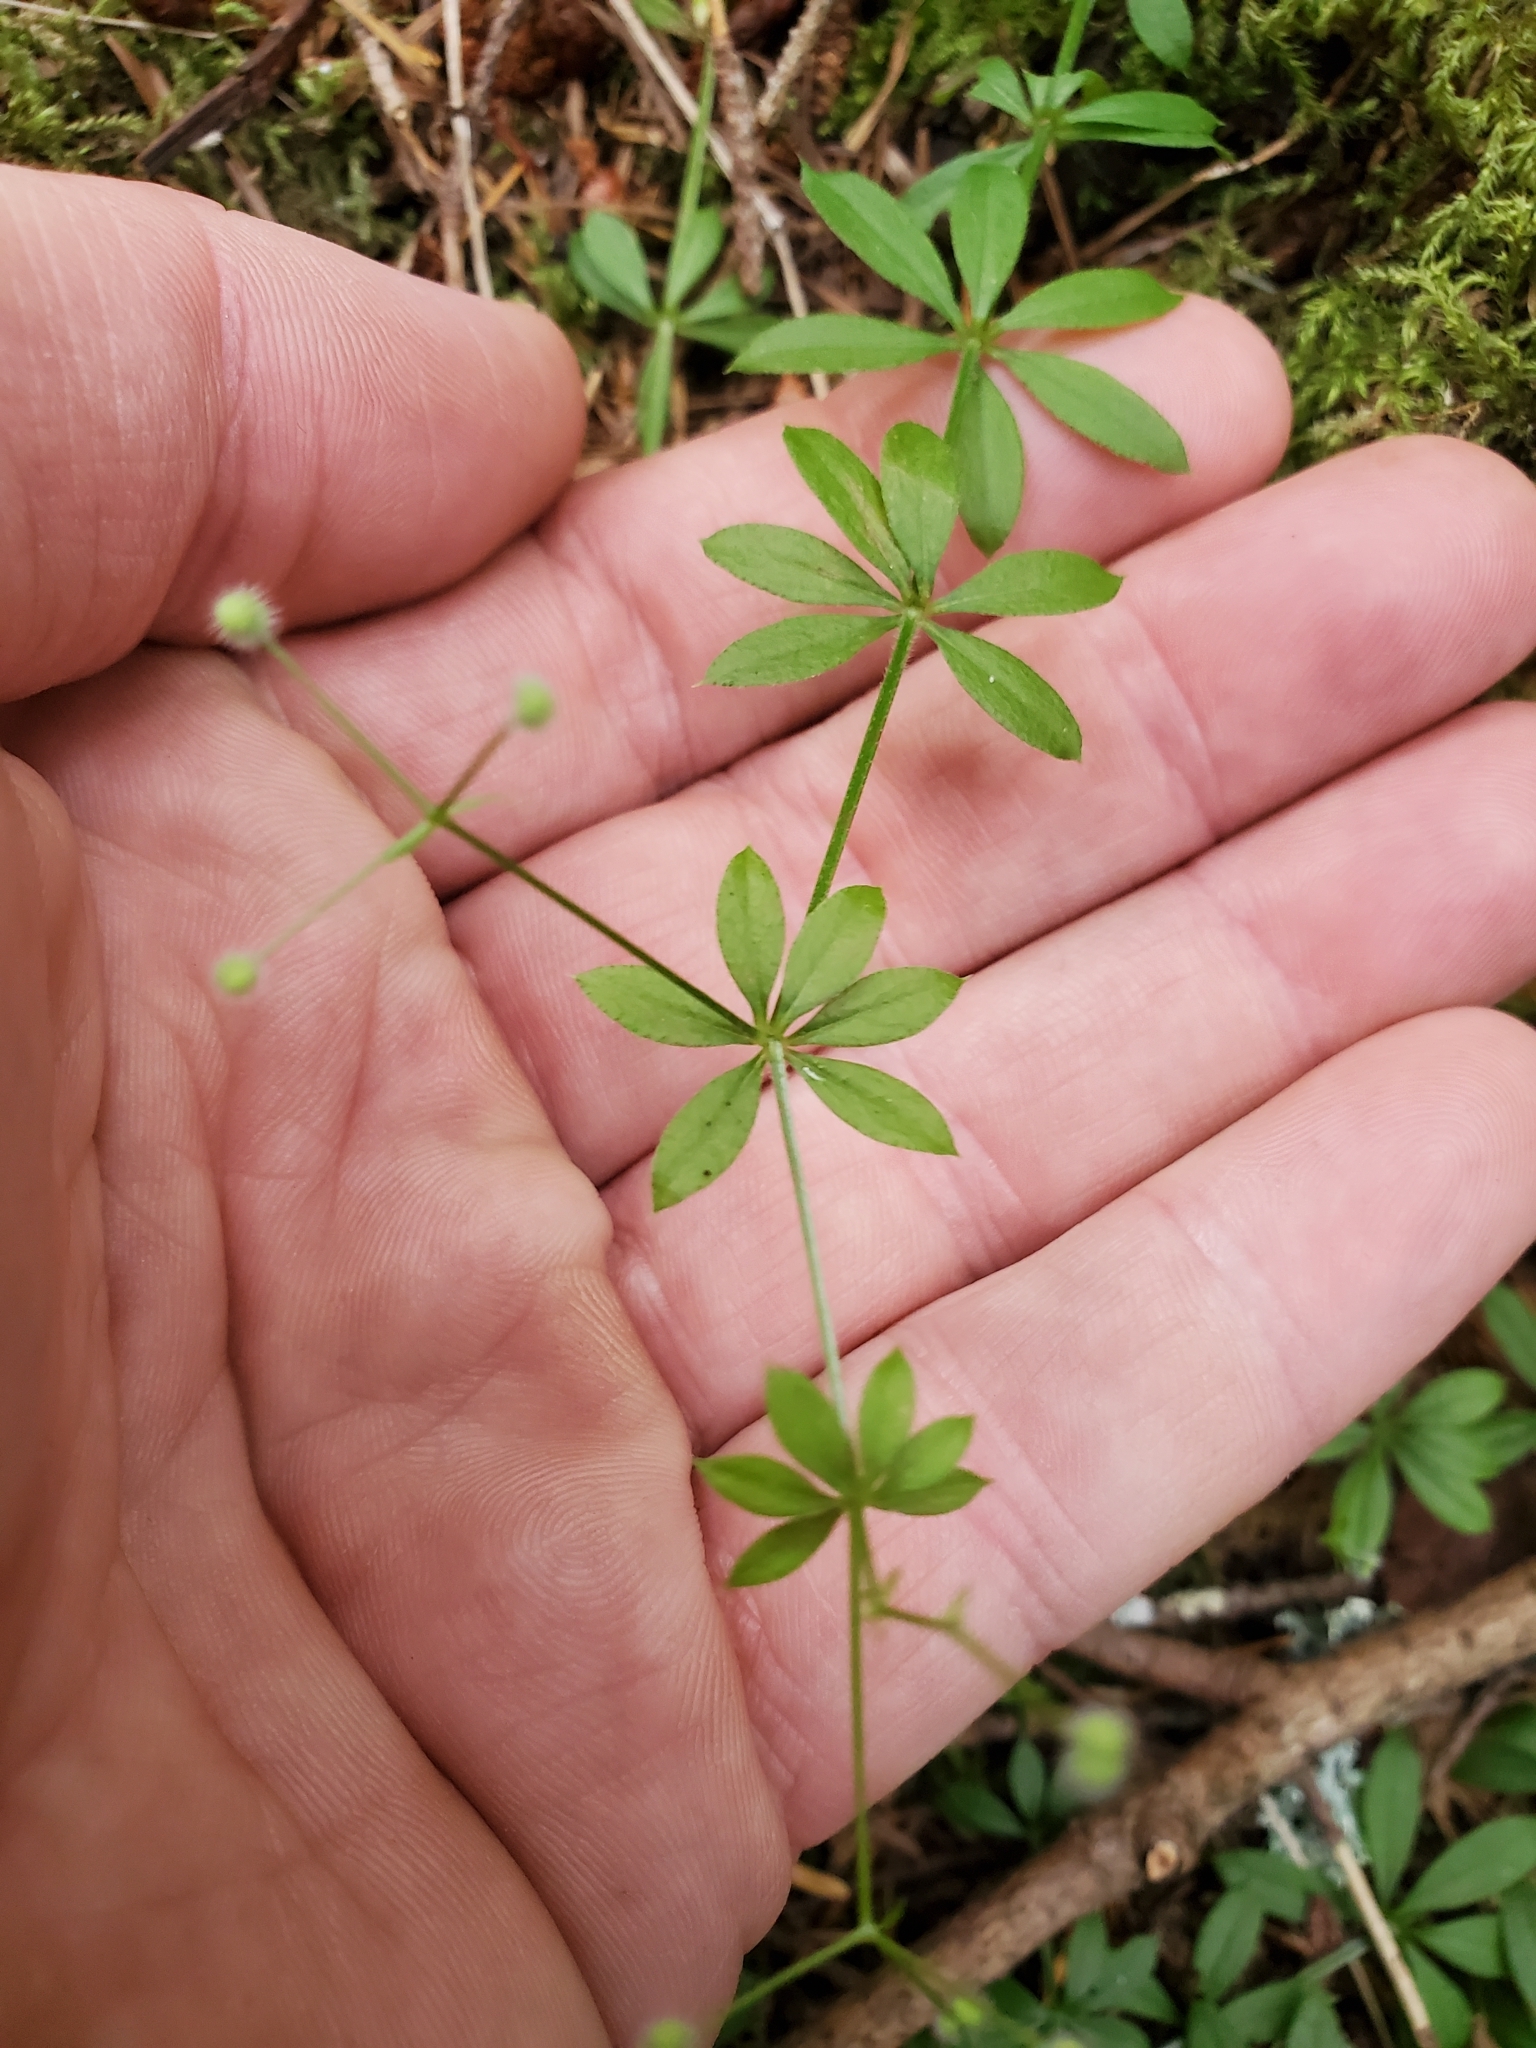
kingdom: Plantae
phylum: Tracheophyta
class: Magnoliopsida
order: Gentianales
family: Rubiaceae
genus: Galium
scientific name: Galium triflorum
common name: Fragrant bedstraw
